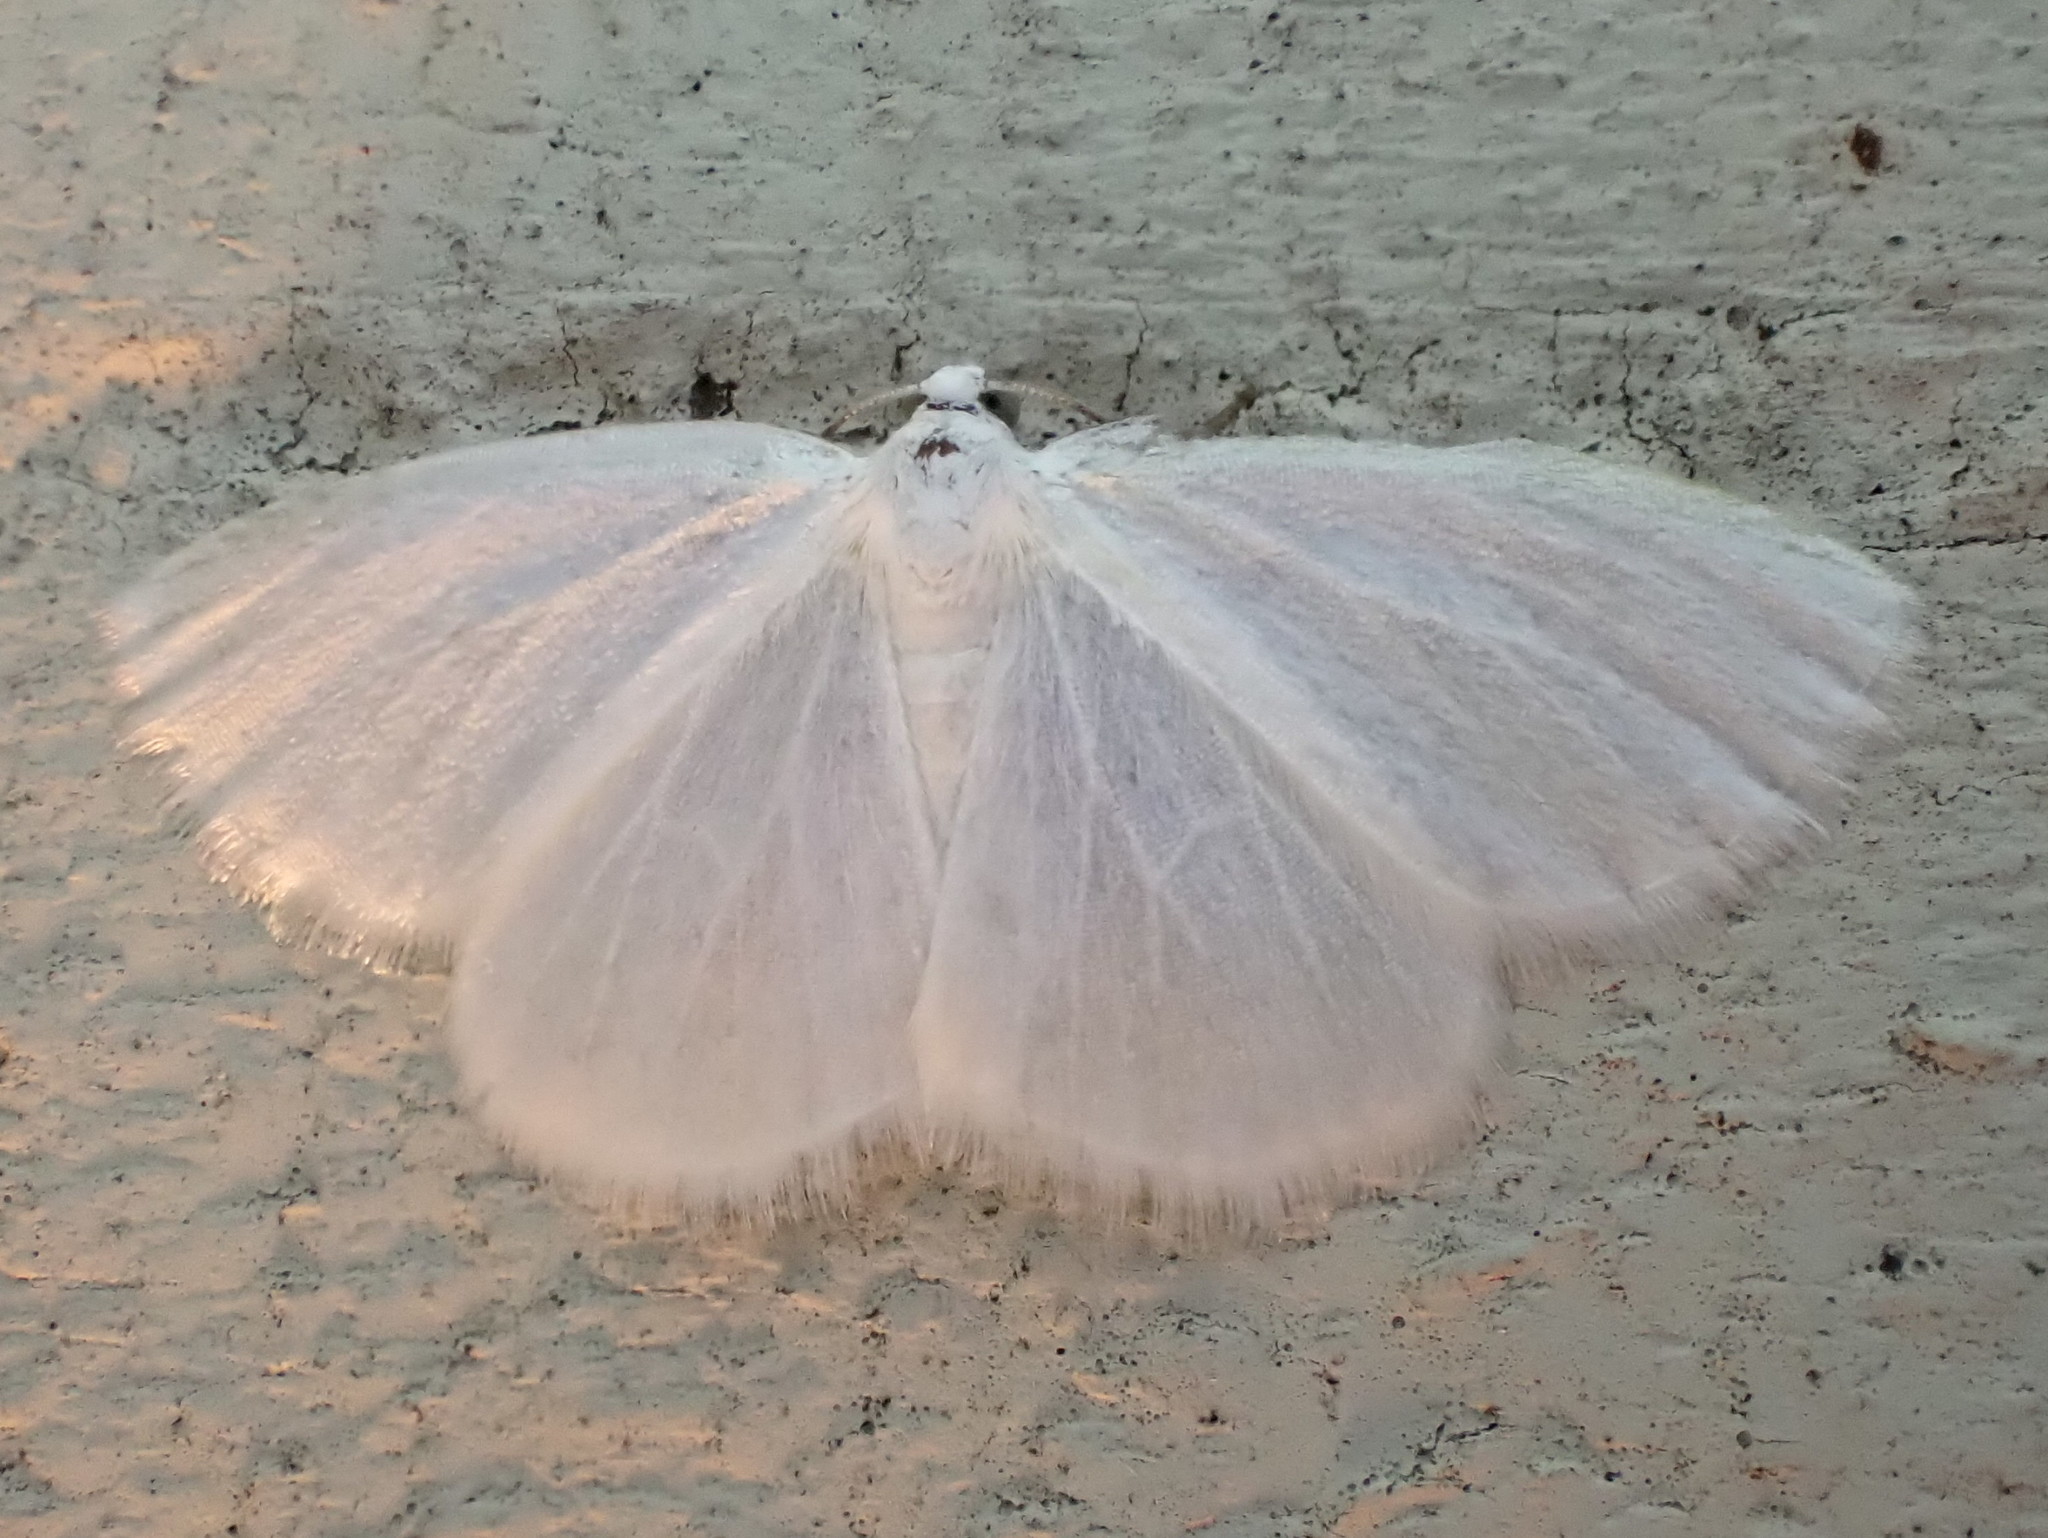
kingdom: Animalia
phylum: Arthropoda
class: Insecta
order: Lepidoptera
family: Geometridae
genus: Lomographa
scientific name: Lomographa vestaliata
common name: White spring moth
